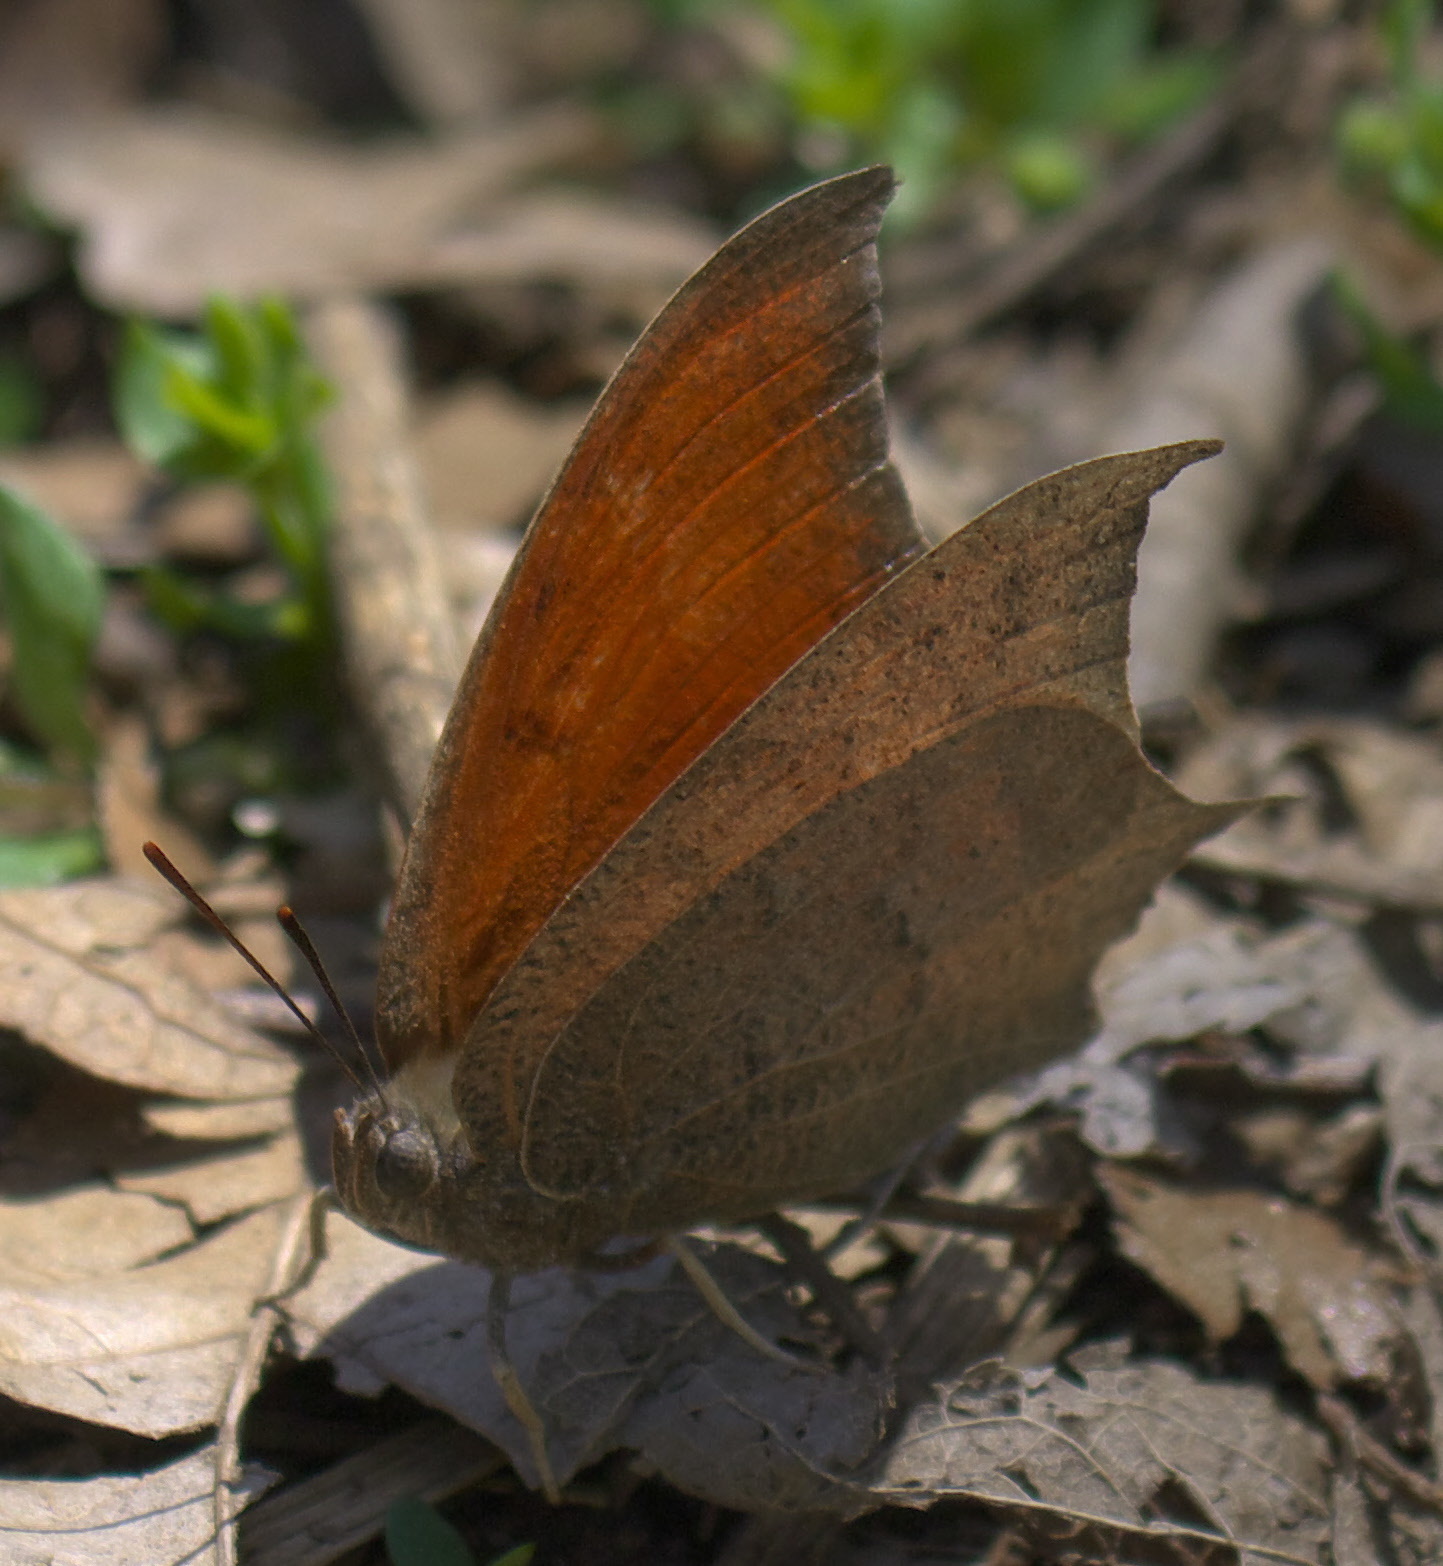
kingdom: Animalia
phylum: Arthropoda
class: Insecta
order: Lepidoptera
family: Nymphalidae
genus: Anaea
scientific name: Anaea andria
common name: Goatweed leafwing
